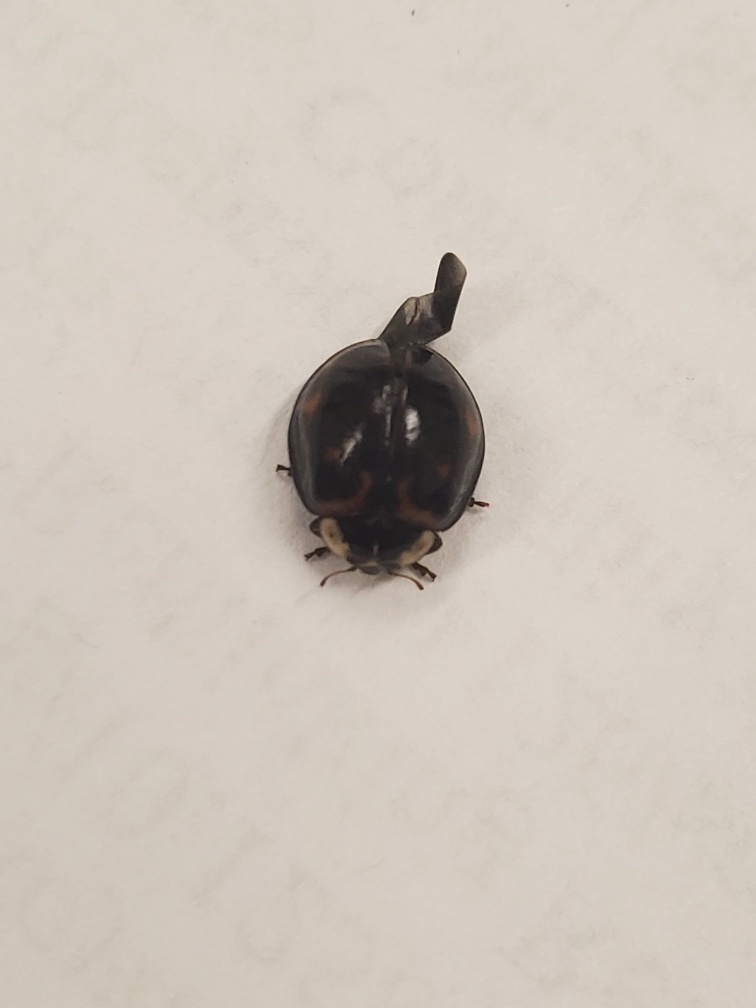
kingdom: Animalia
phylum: Arthropoda
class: Insecta
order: Coleoptera
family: Coccinellidae
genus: Harmonia
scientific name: Harmonia axyridis
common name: Harlequin ladybird
